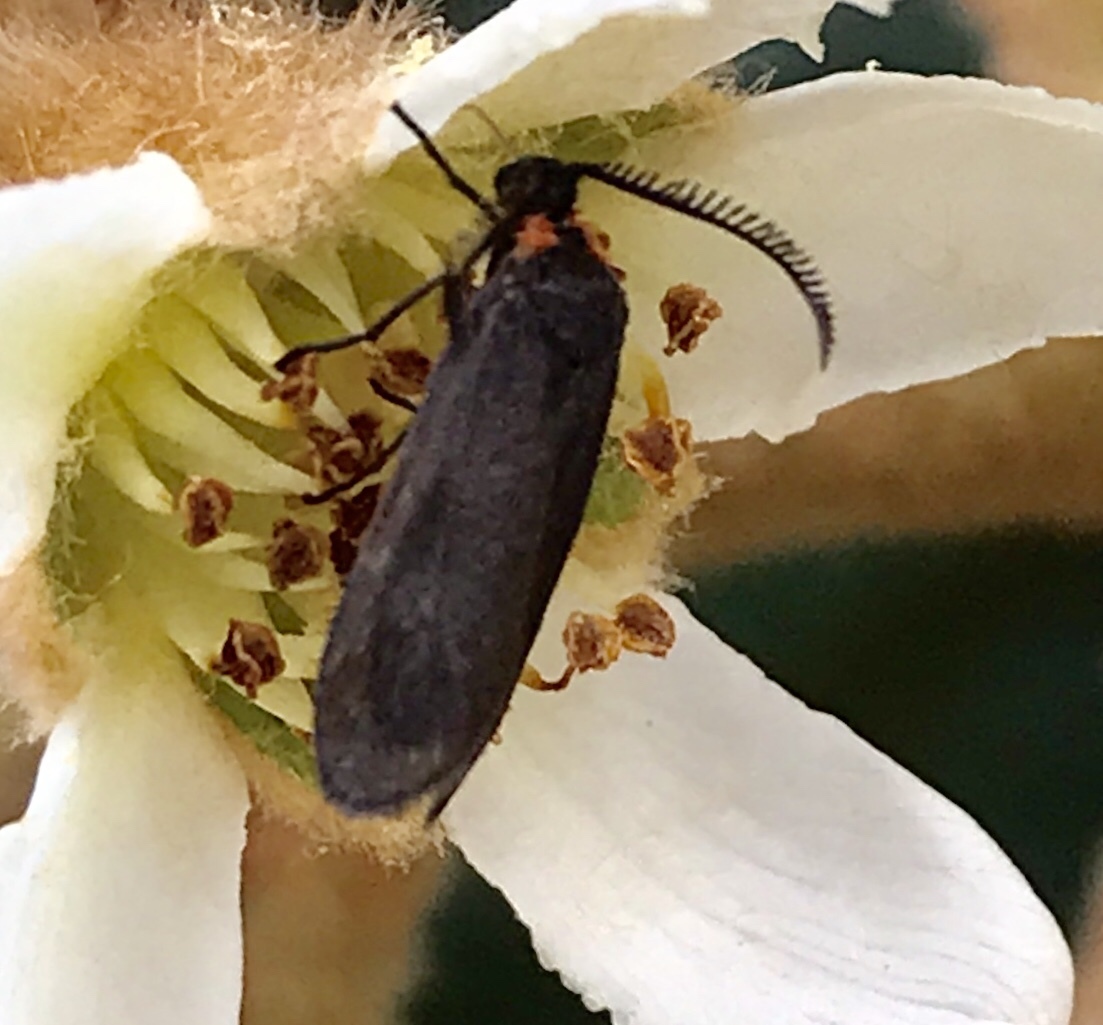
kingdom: Animalia
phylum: Arthropoda
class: Insecta
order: Lepidoptera
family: Zygaenidae
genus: Acoloithus
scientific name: Acoloithus falsarius
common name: Clemens' false skeletonizer
